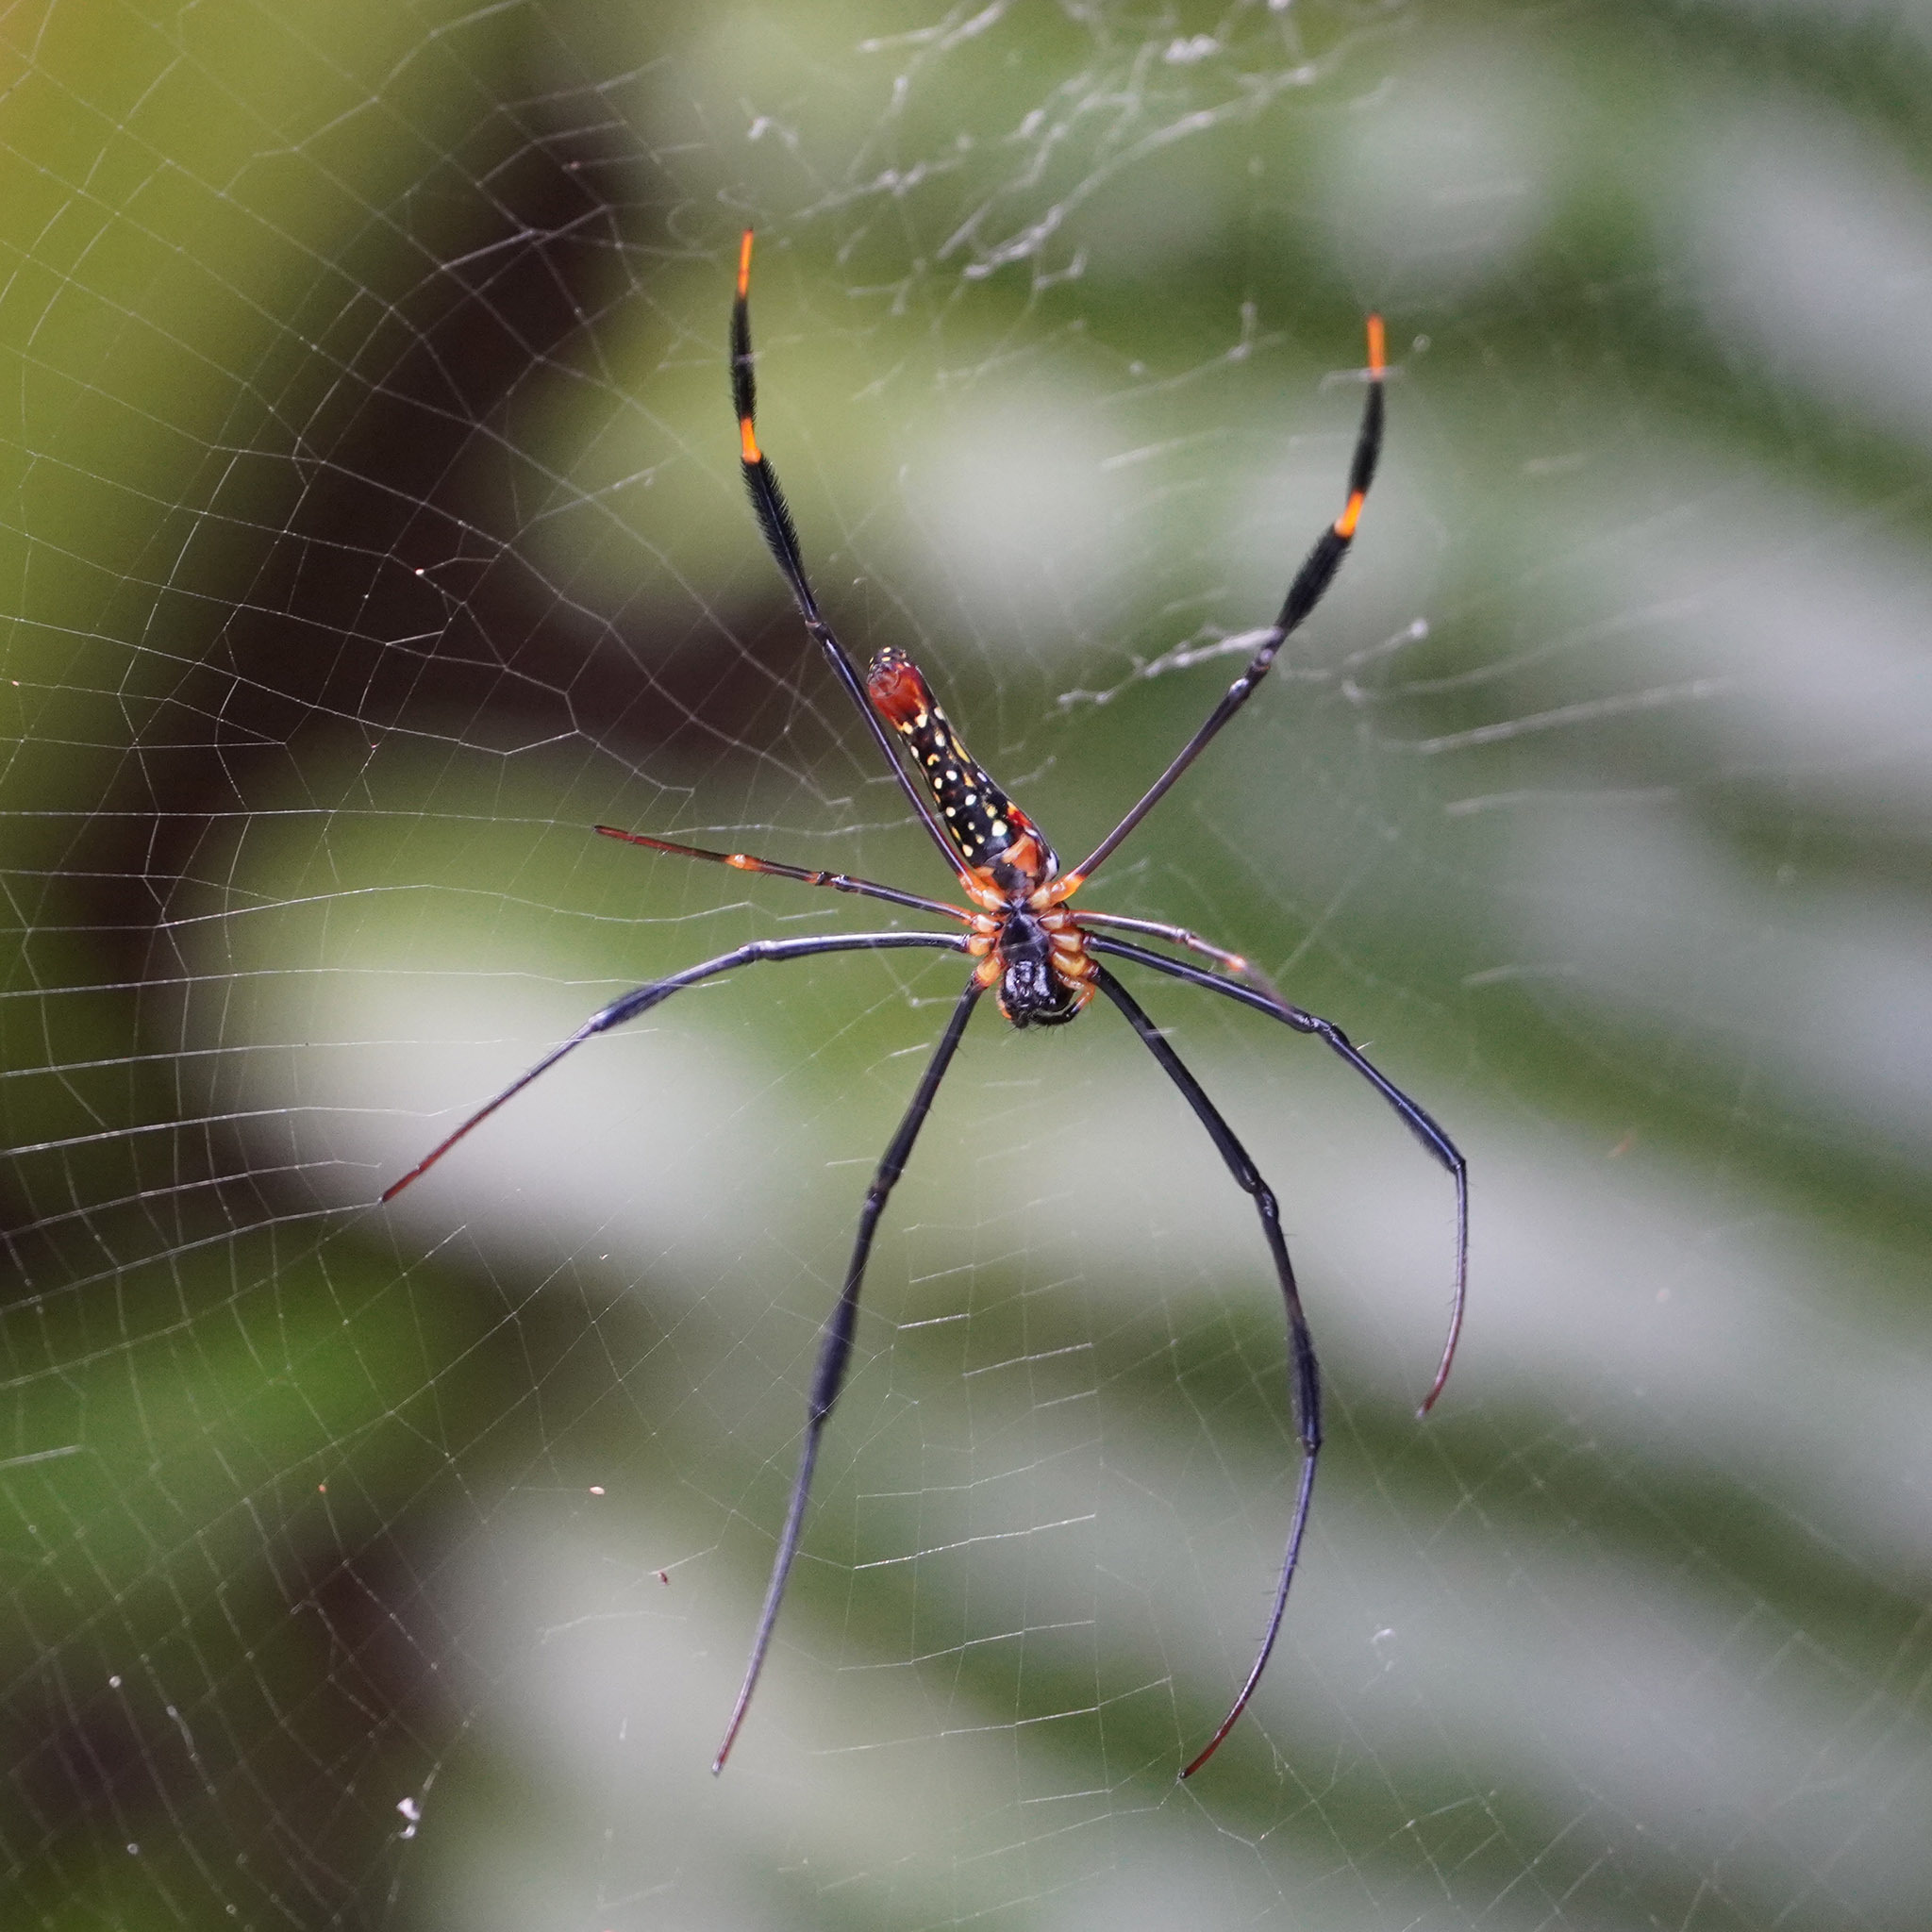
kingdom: Animalia
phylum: Arthropoda
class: Arachnida
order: Araneae
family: Araneidae
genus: Nephila
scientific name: Nephila pilipes
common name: Giant golden orb weaver
